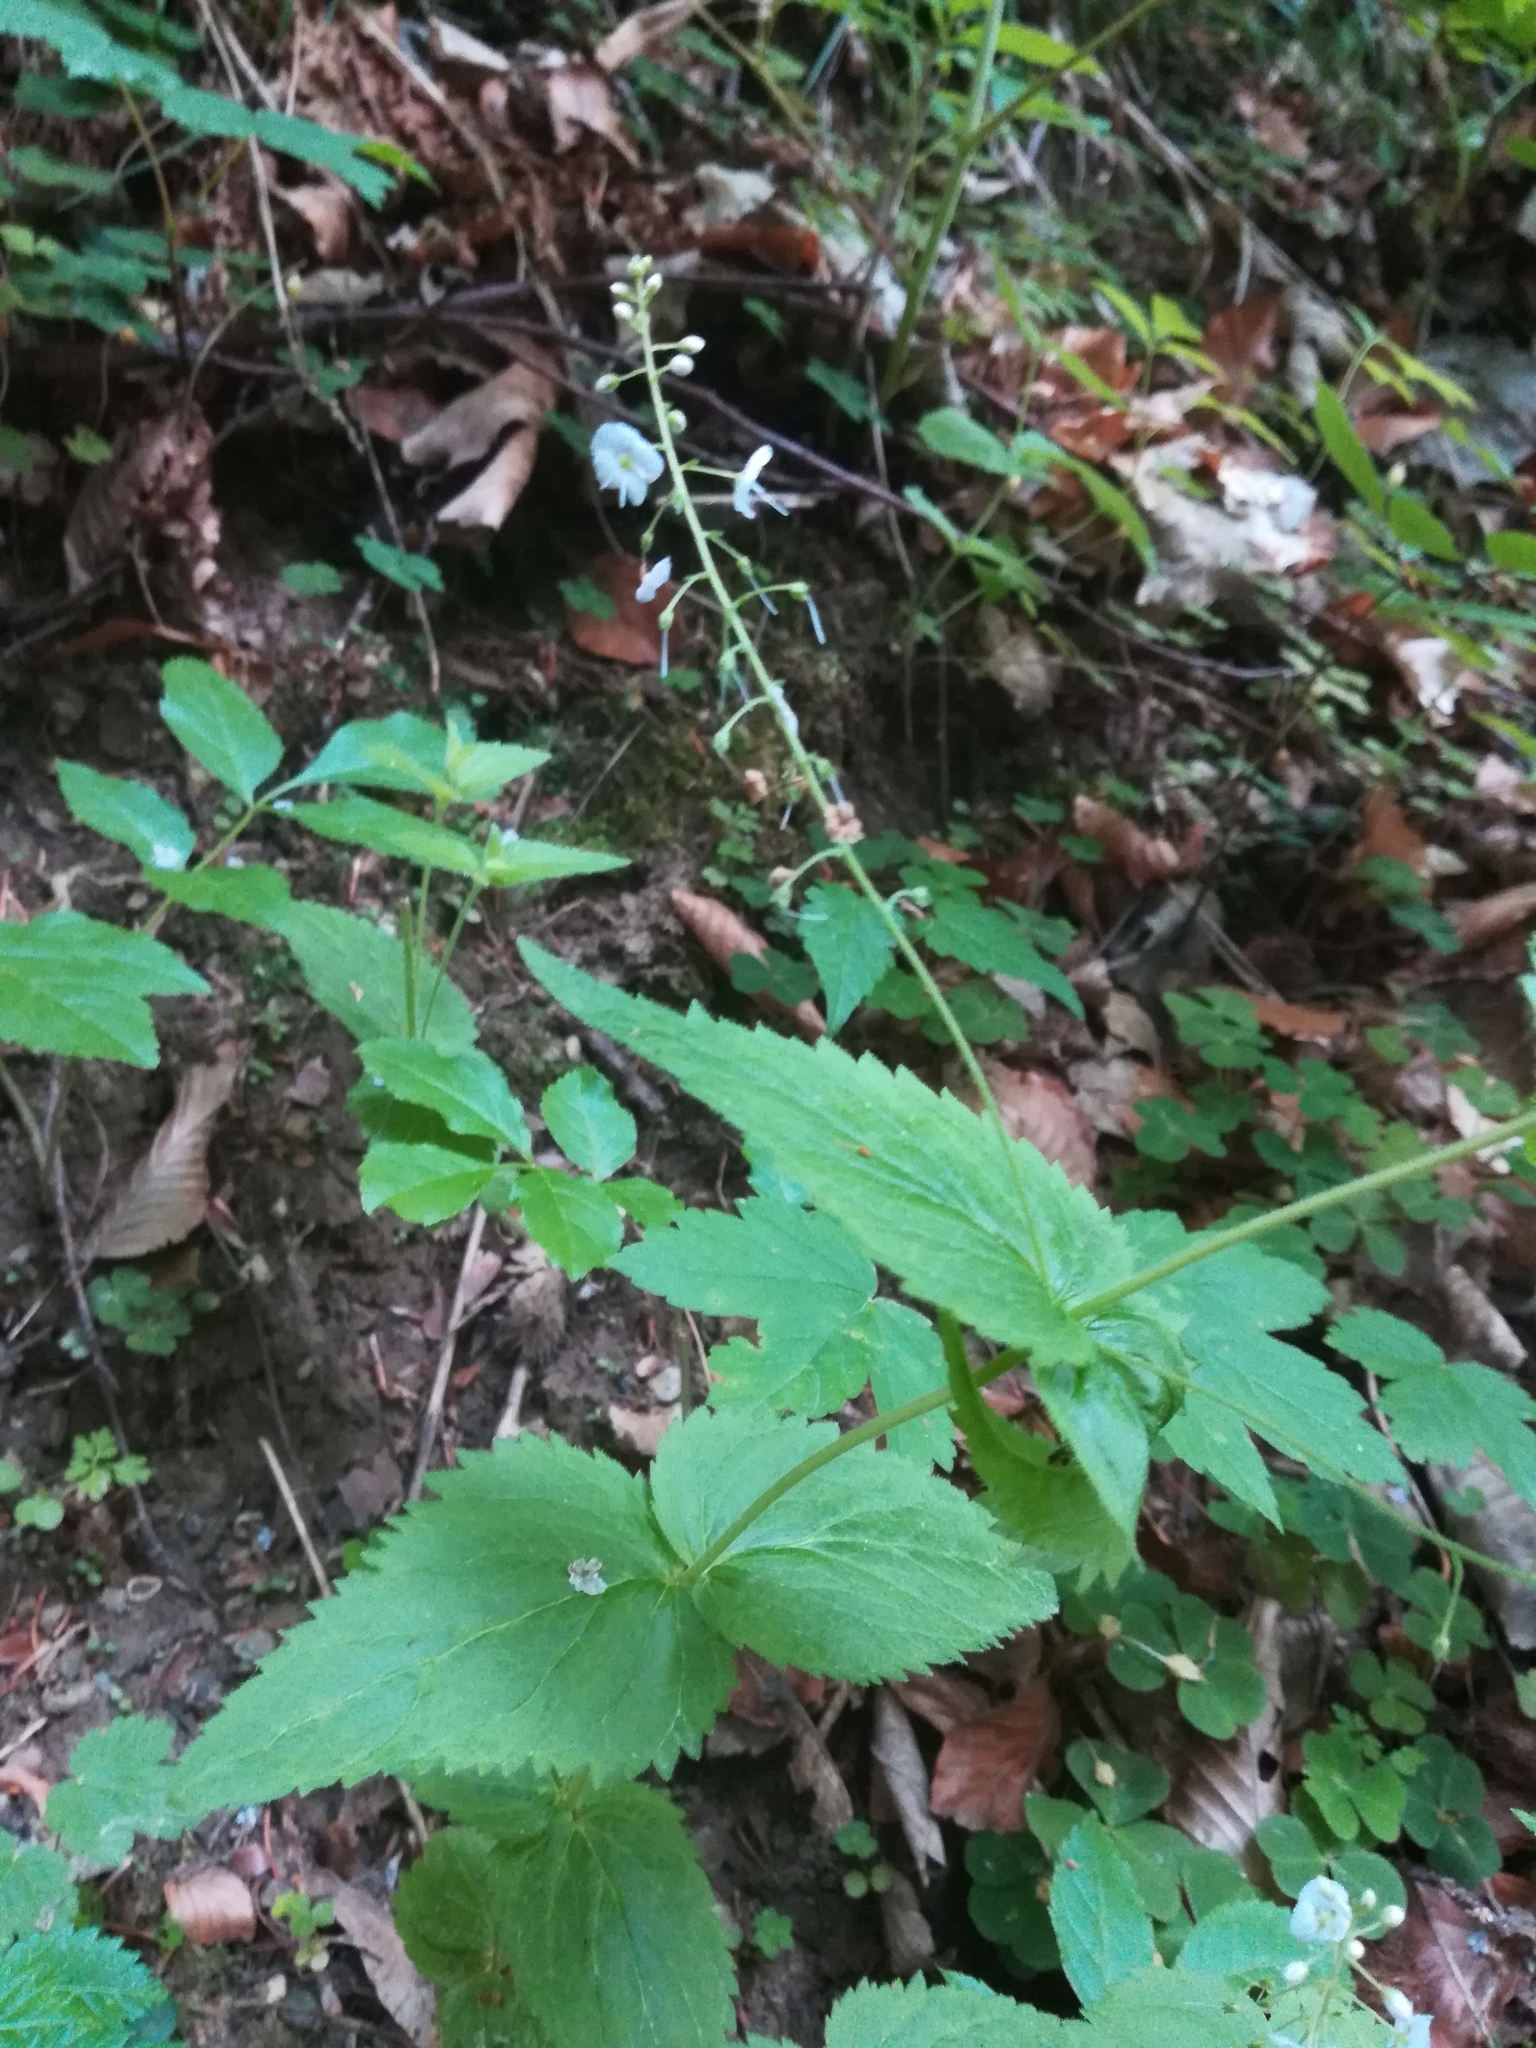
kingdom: Plantae
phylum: Tracheophyta
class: Magnoliopsida
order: Lamiales
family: Plantaginaceae
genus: Veronica
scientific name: Veronica urticifolia
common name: Nettle-leaf speedwell
